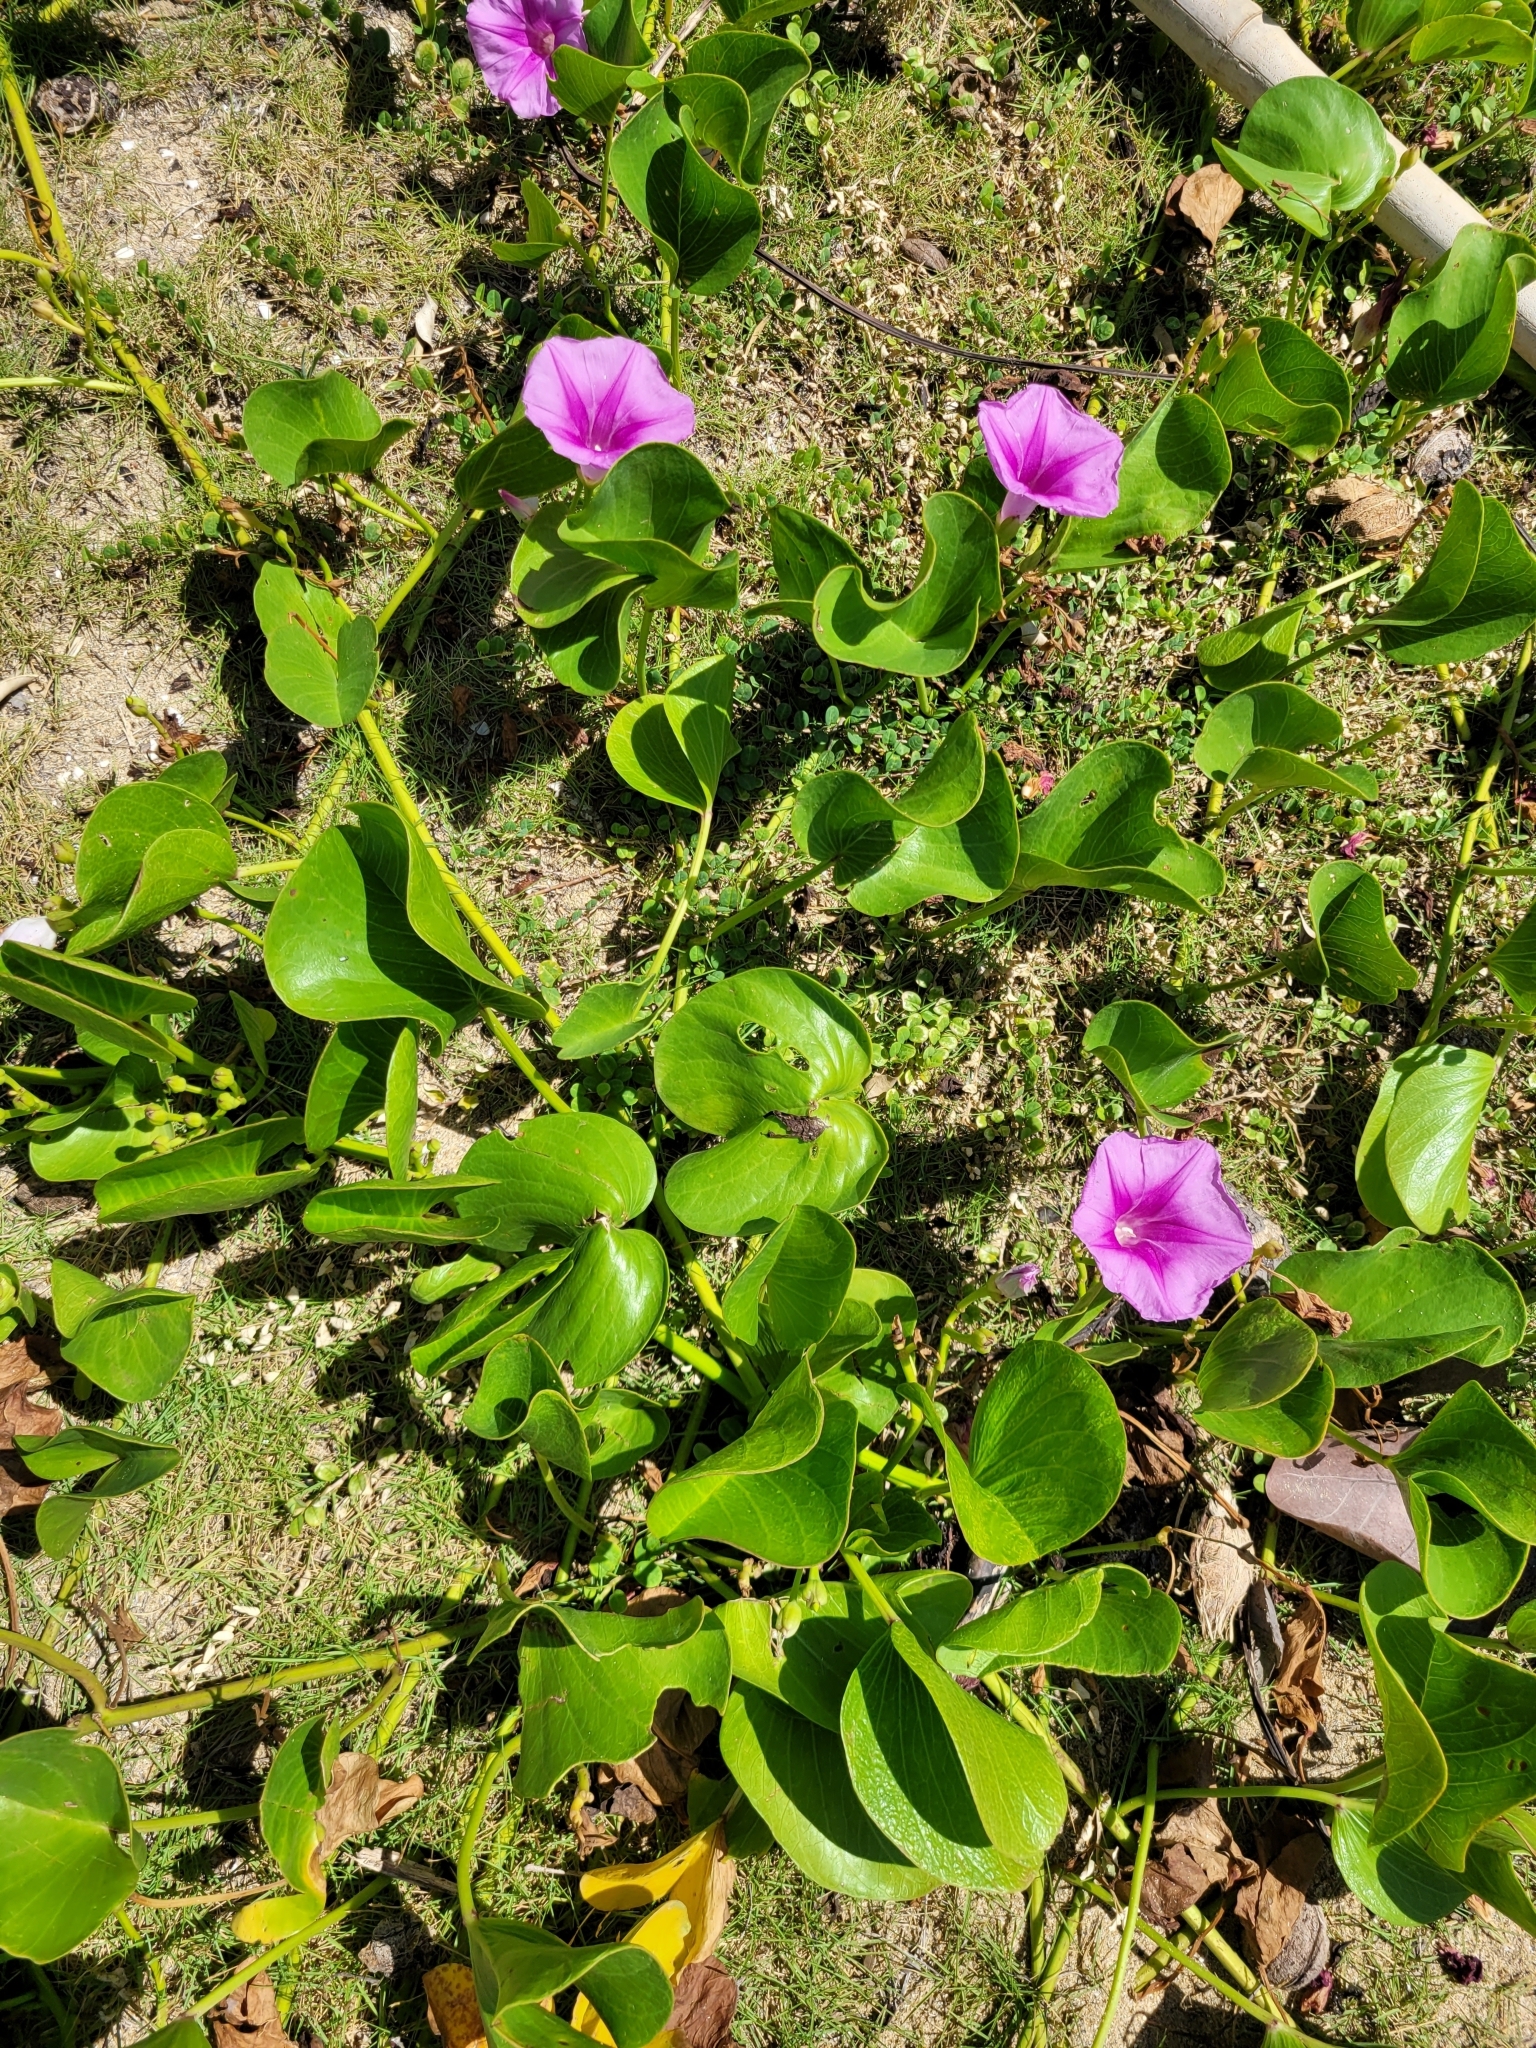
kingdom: Plantae
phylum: Tracheophyta
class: Magnoliopsida
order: Solanales
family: Convolvulaceae
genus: Ipomoea
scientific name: Ipomoea pes-caprae
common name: Beach morning glory
